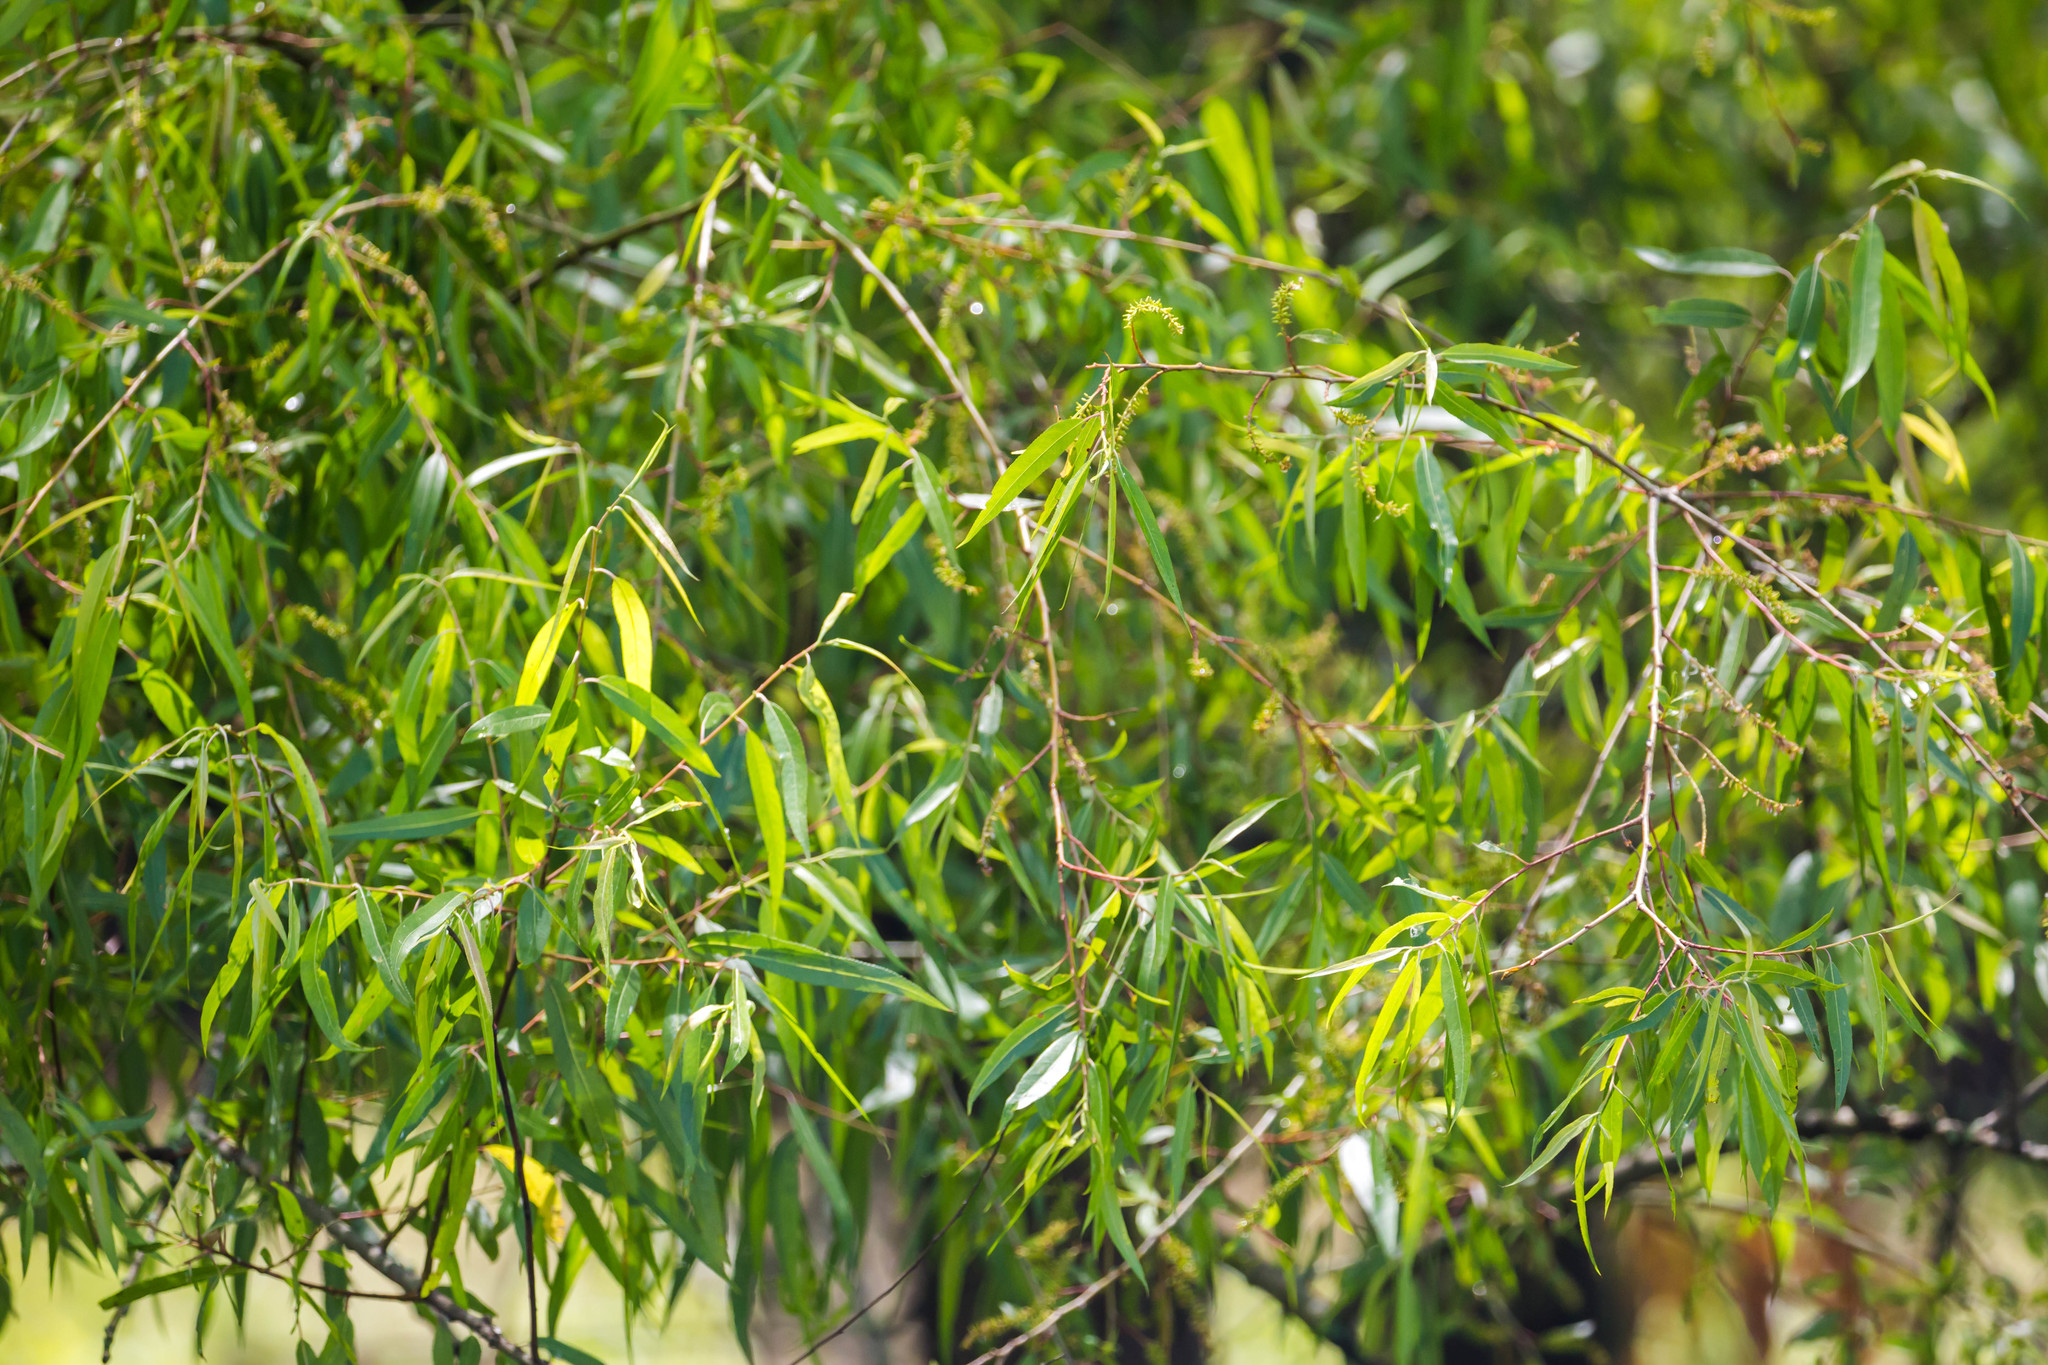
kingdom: Plantae
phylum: Tracheophyta
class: Magnoliopsida
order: Malpighiales
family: Salicaceae
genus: Salix
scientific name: Salix nigra
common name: Black willow
